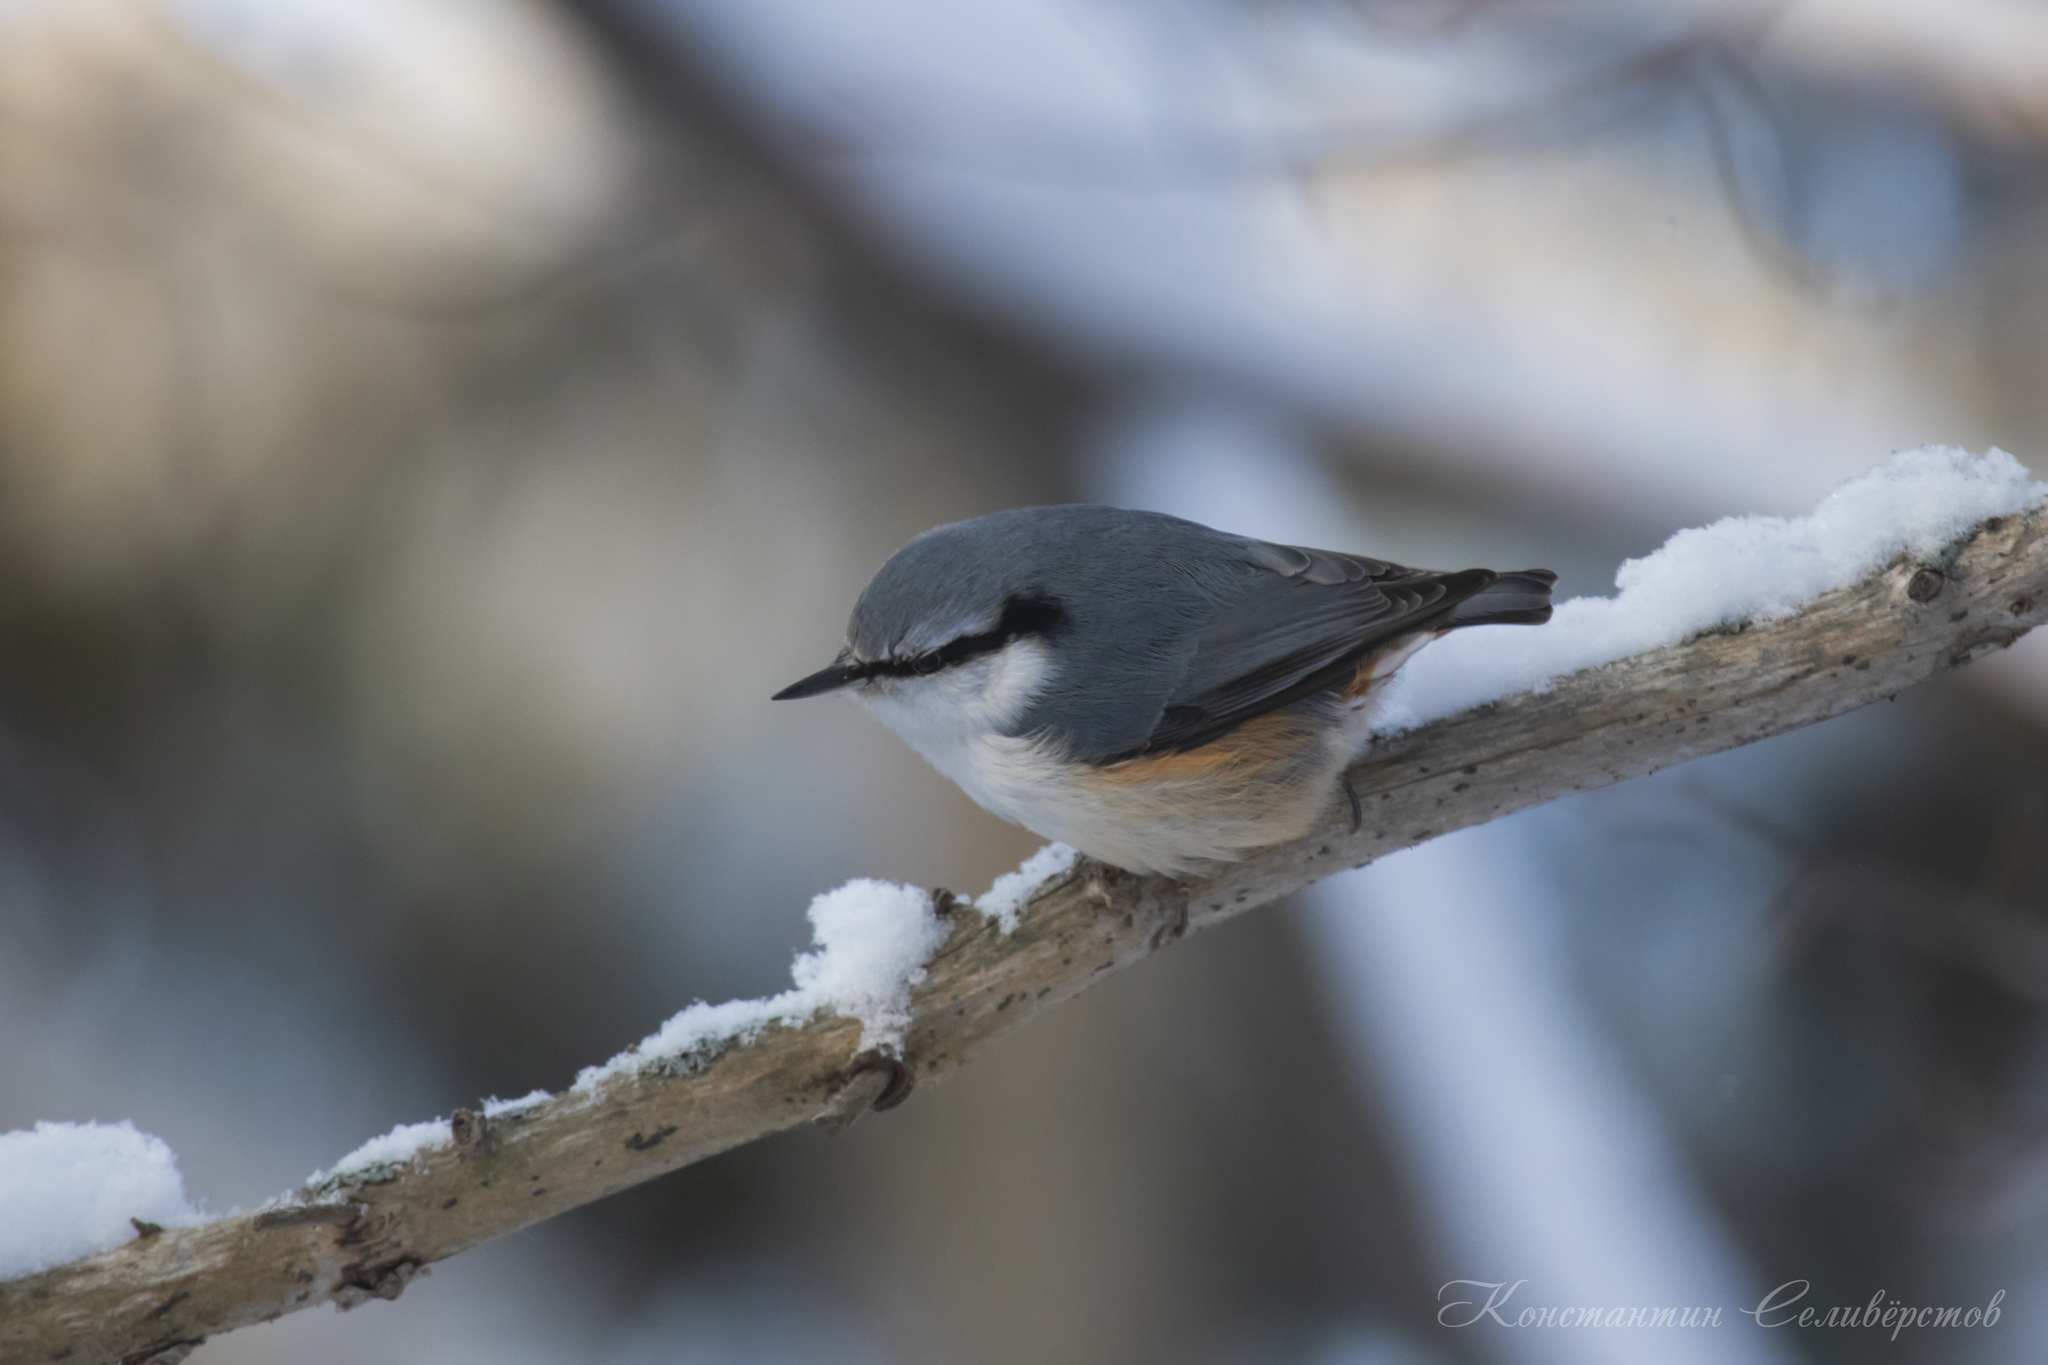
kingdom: Animalia
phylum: Chordata
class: Aves
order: Passeriformes
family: Sittidae
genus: Sitta
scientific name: Sitta europaea
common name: Eurasian nuthatch
